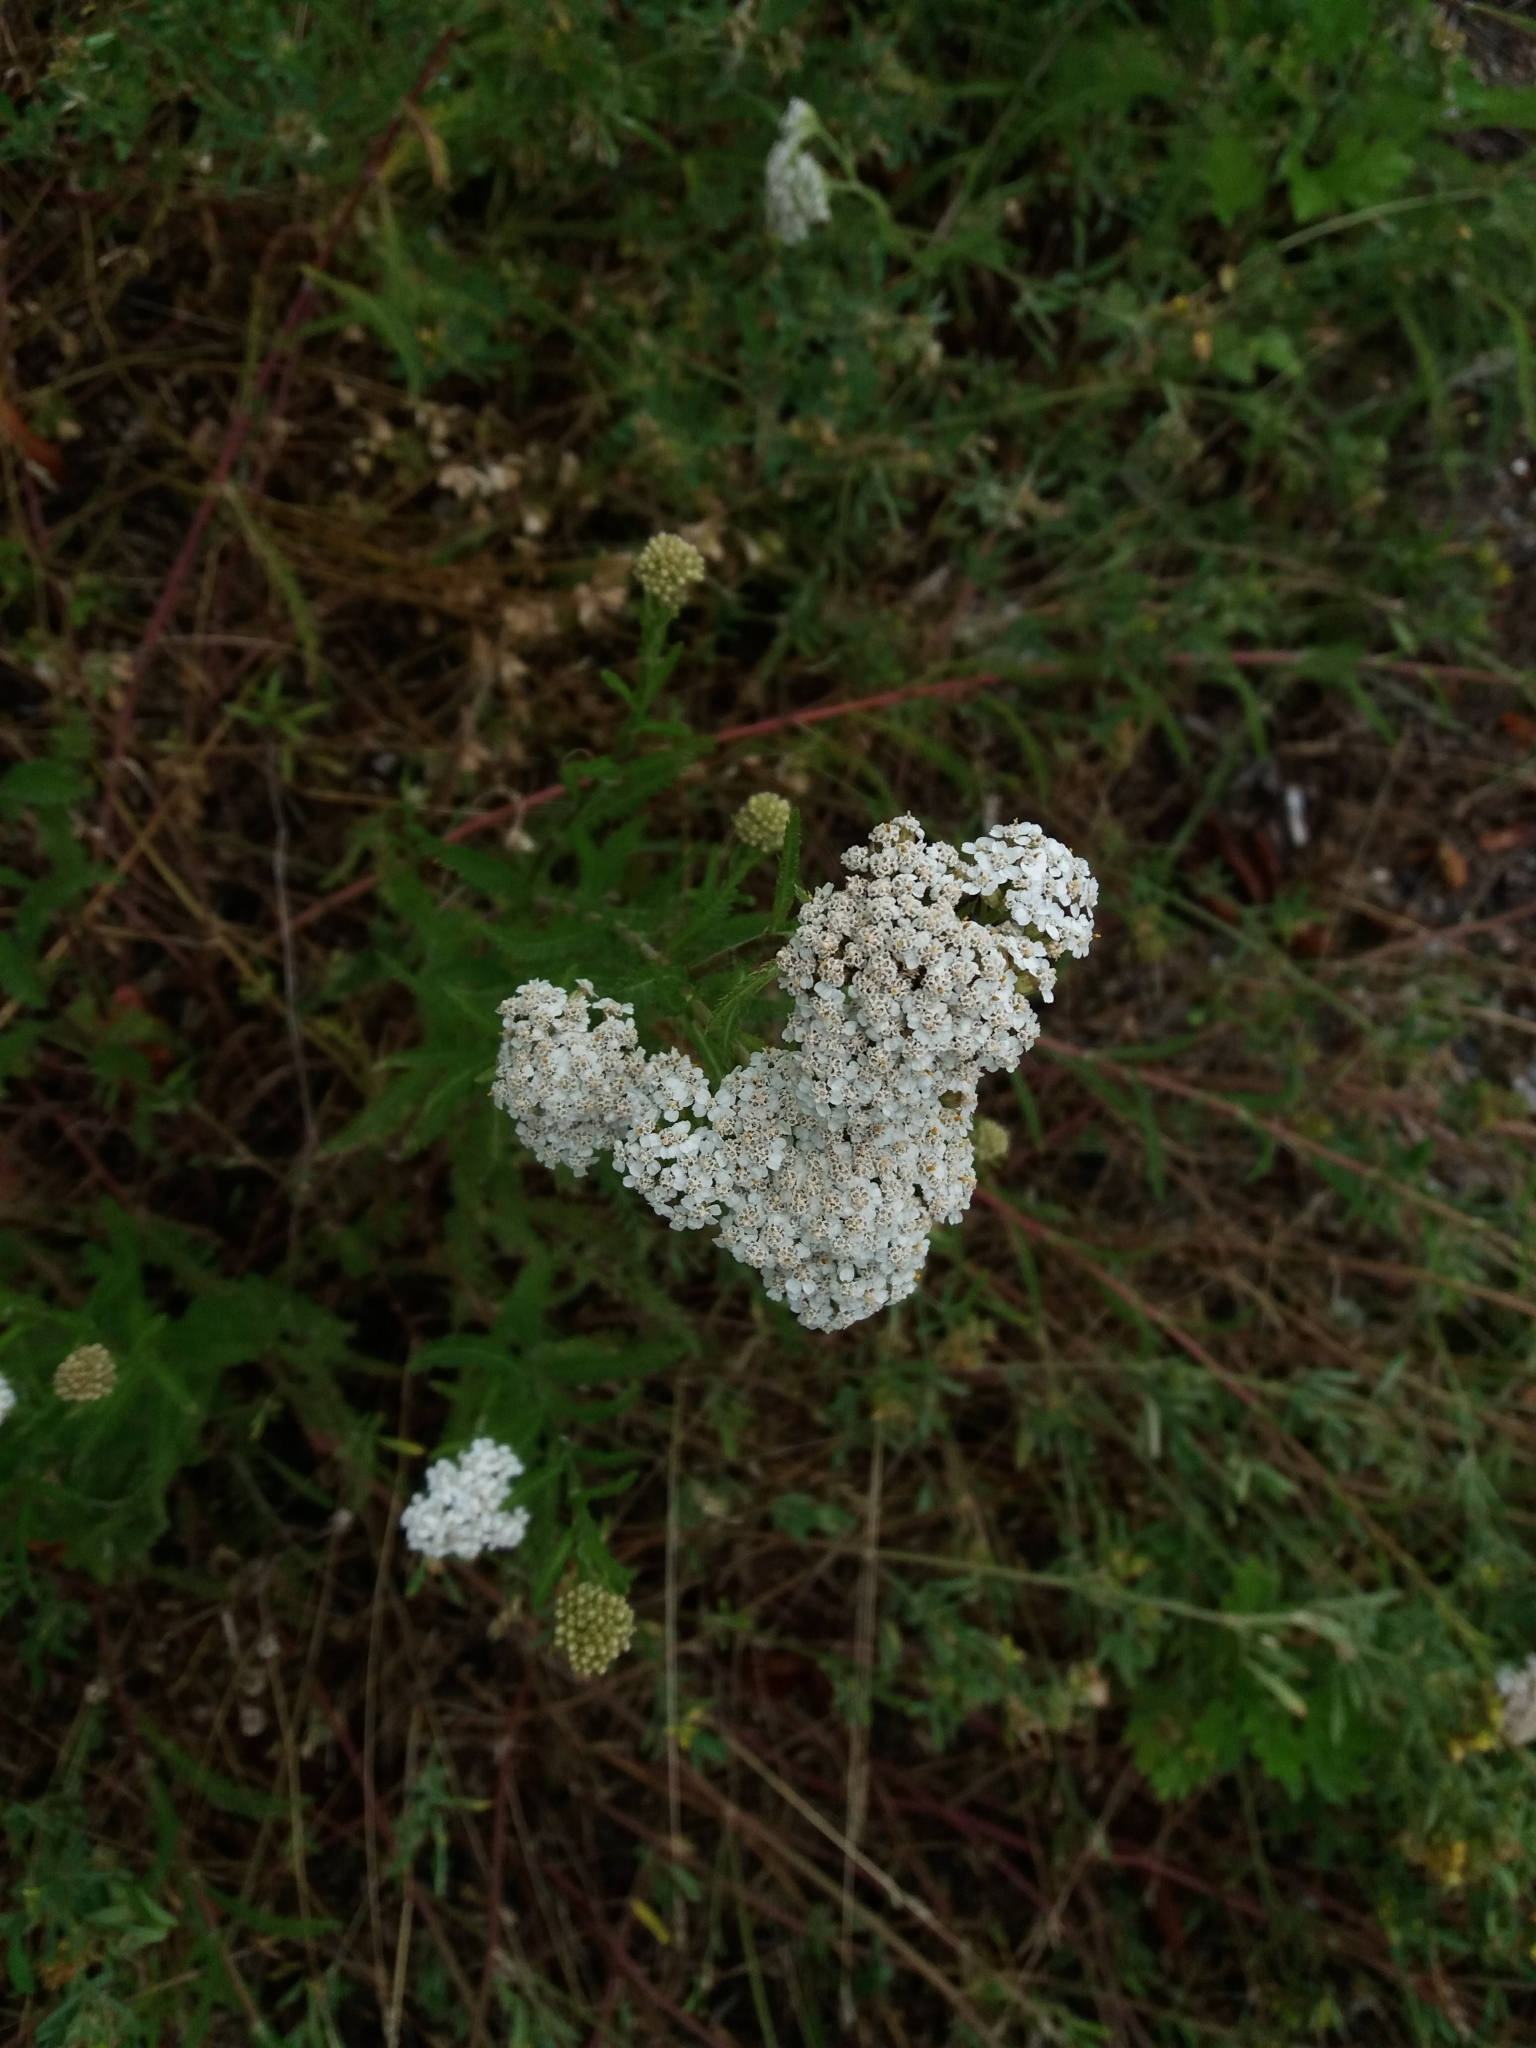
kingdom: Plantae
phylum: Tracheophyta
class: Magnoliopsida
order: Asterales
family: Asteraceae
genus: Achillea
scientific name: Achillea millefolium
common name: Yarrow
